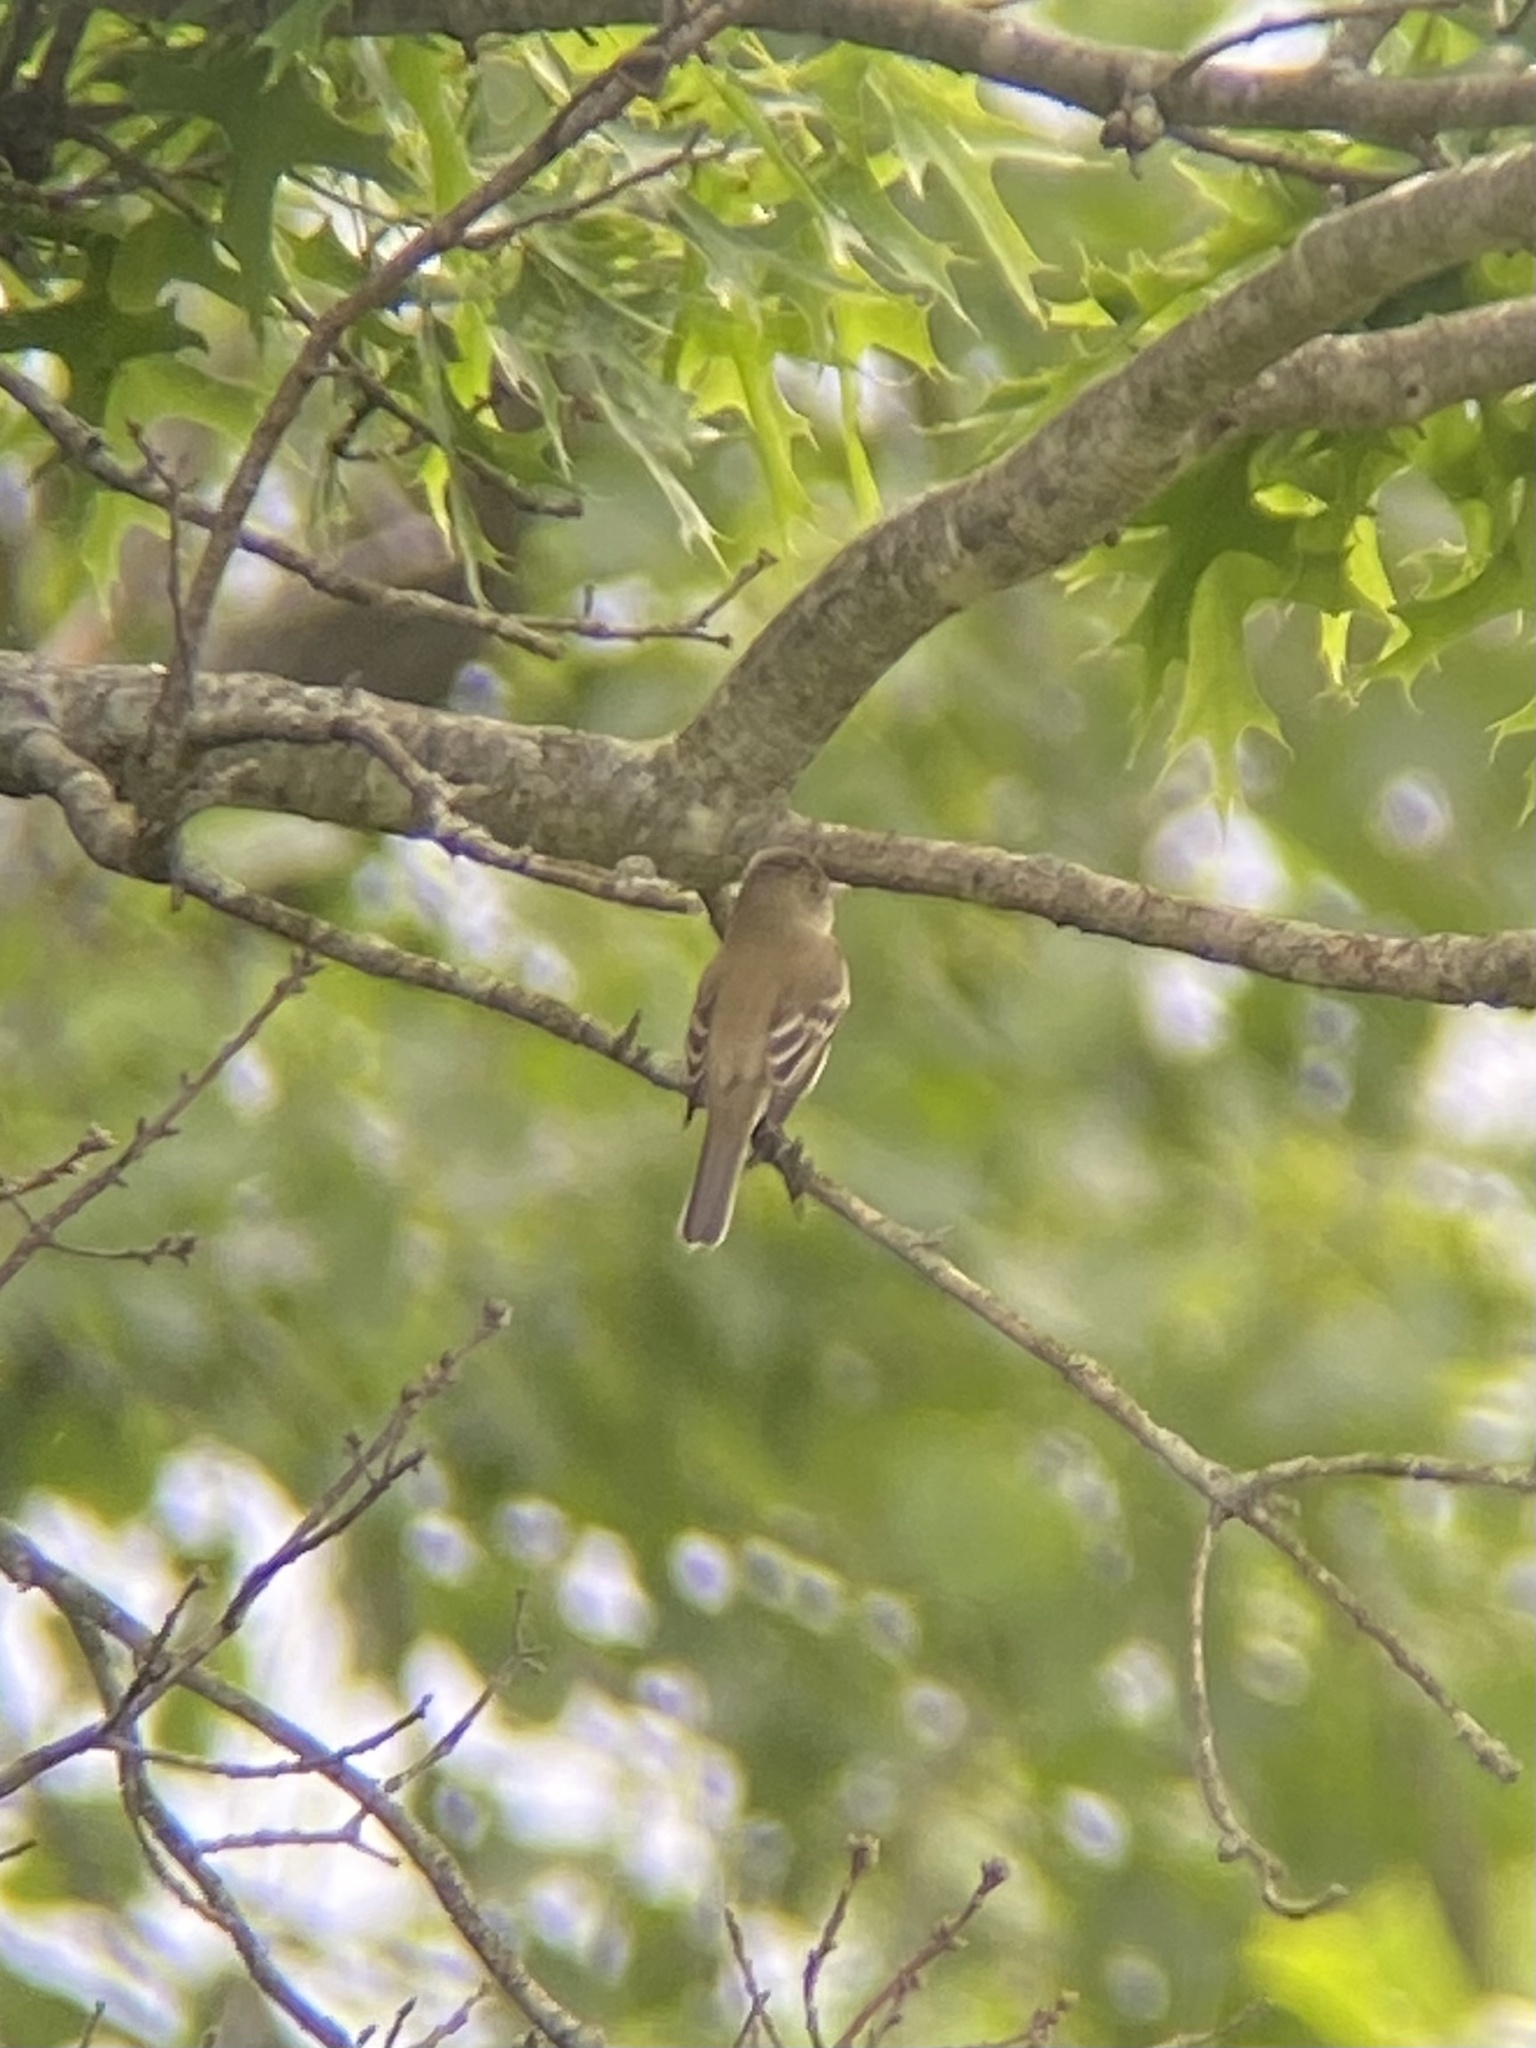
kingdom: Animalia
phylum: Chordata
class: Aves
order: Passeriformes
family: Tyrannidae
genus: Empidonax
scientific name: Empidonax traillii
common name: Willow flycatcher
